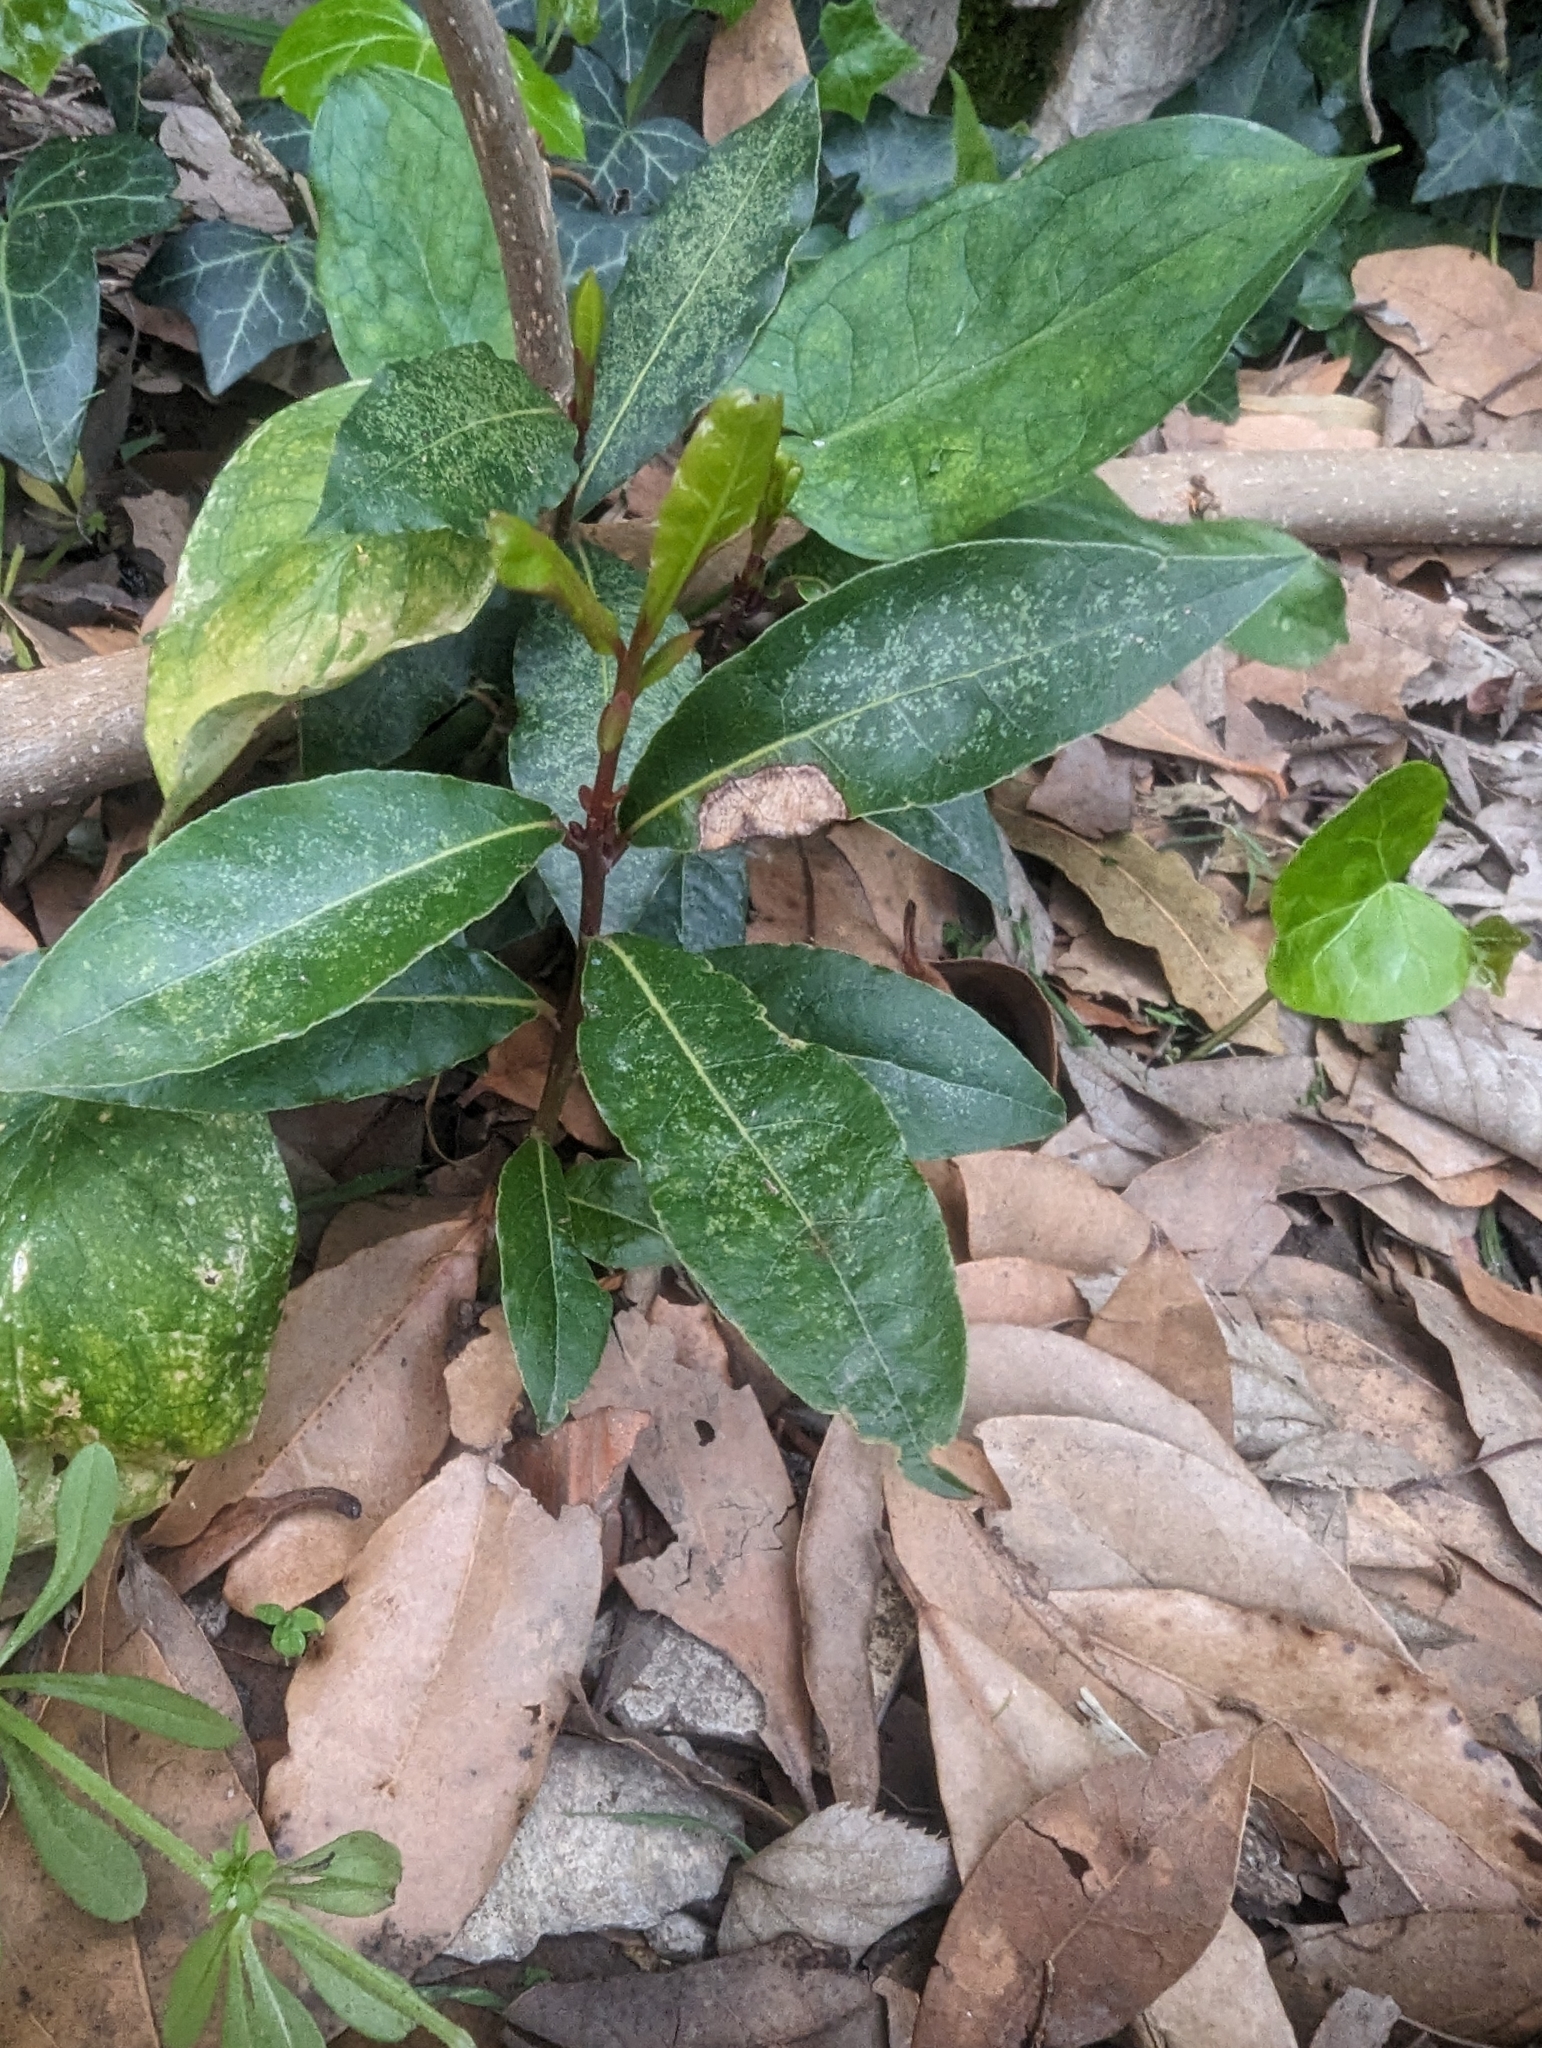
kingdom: Plantae
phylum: Tracheophyta
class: Magnoliopsida
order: Laurales
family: Lauraceae
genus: Laurus
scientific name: Laurus nobilis
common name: Bay
